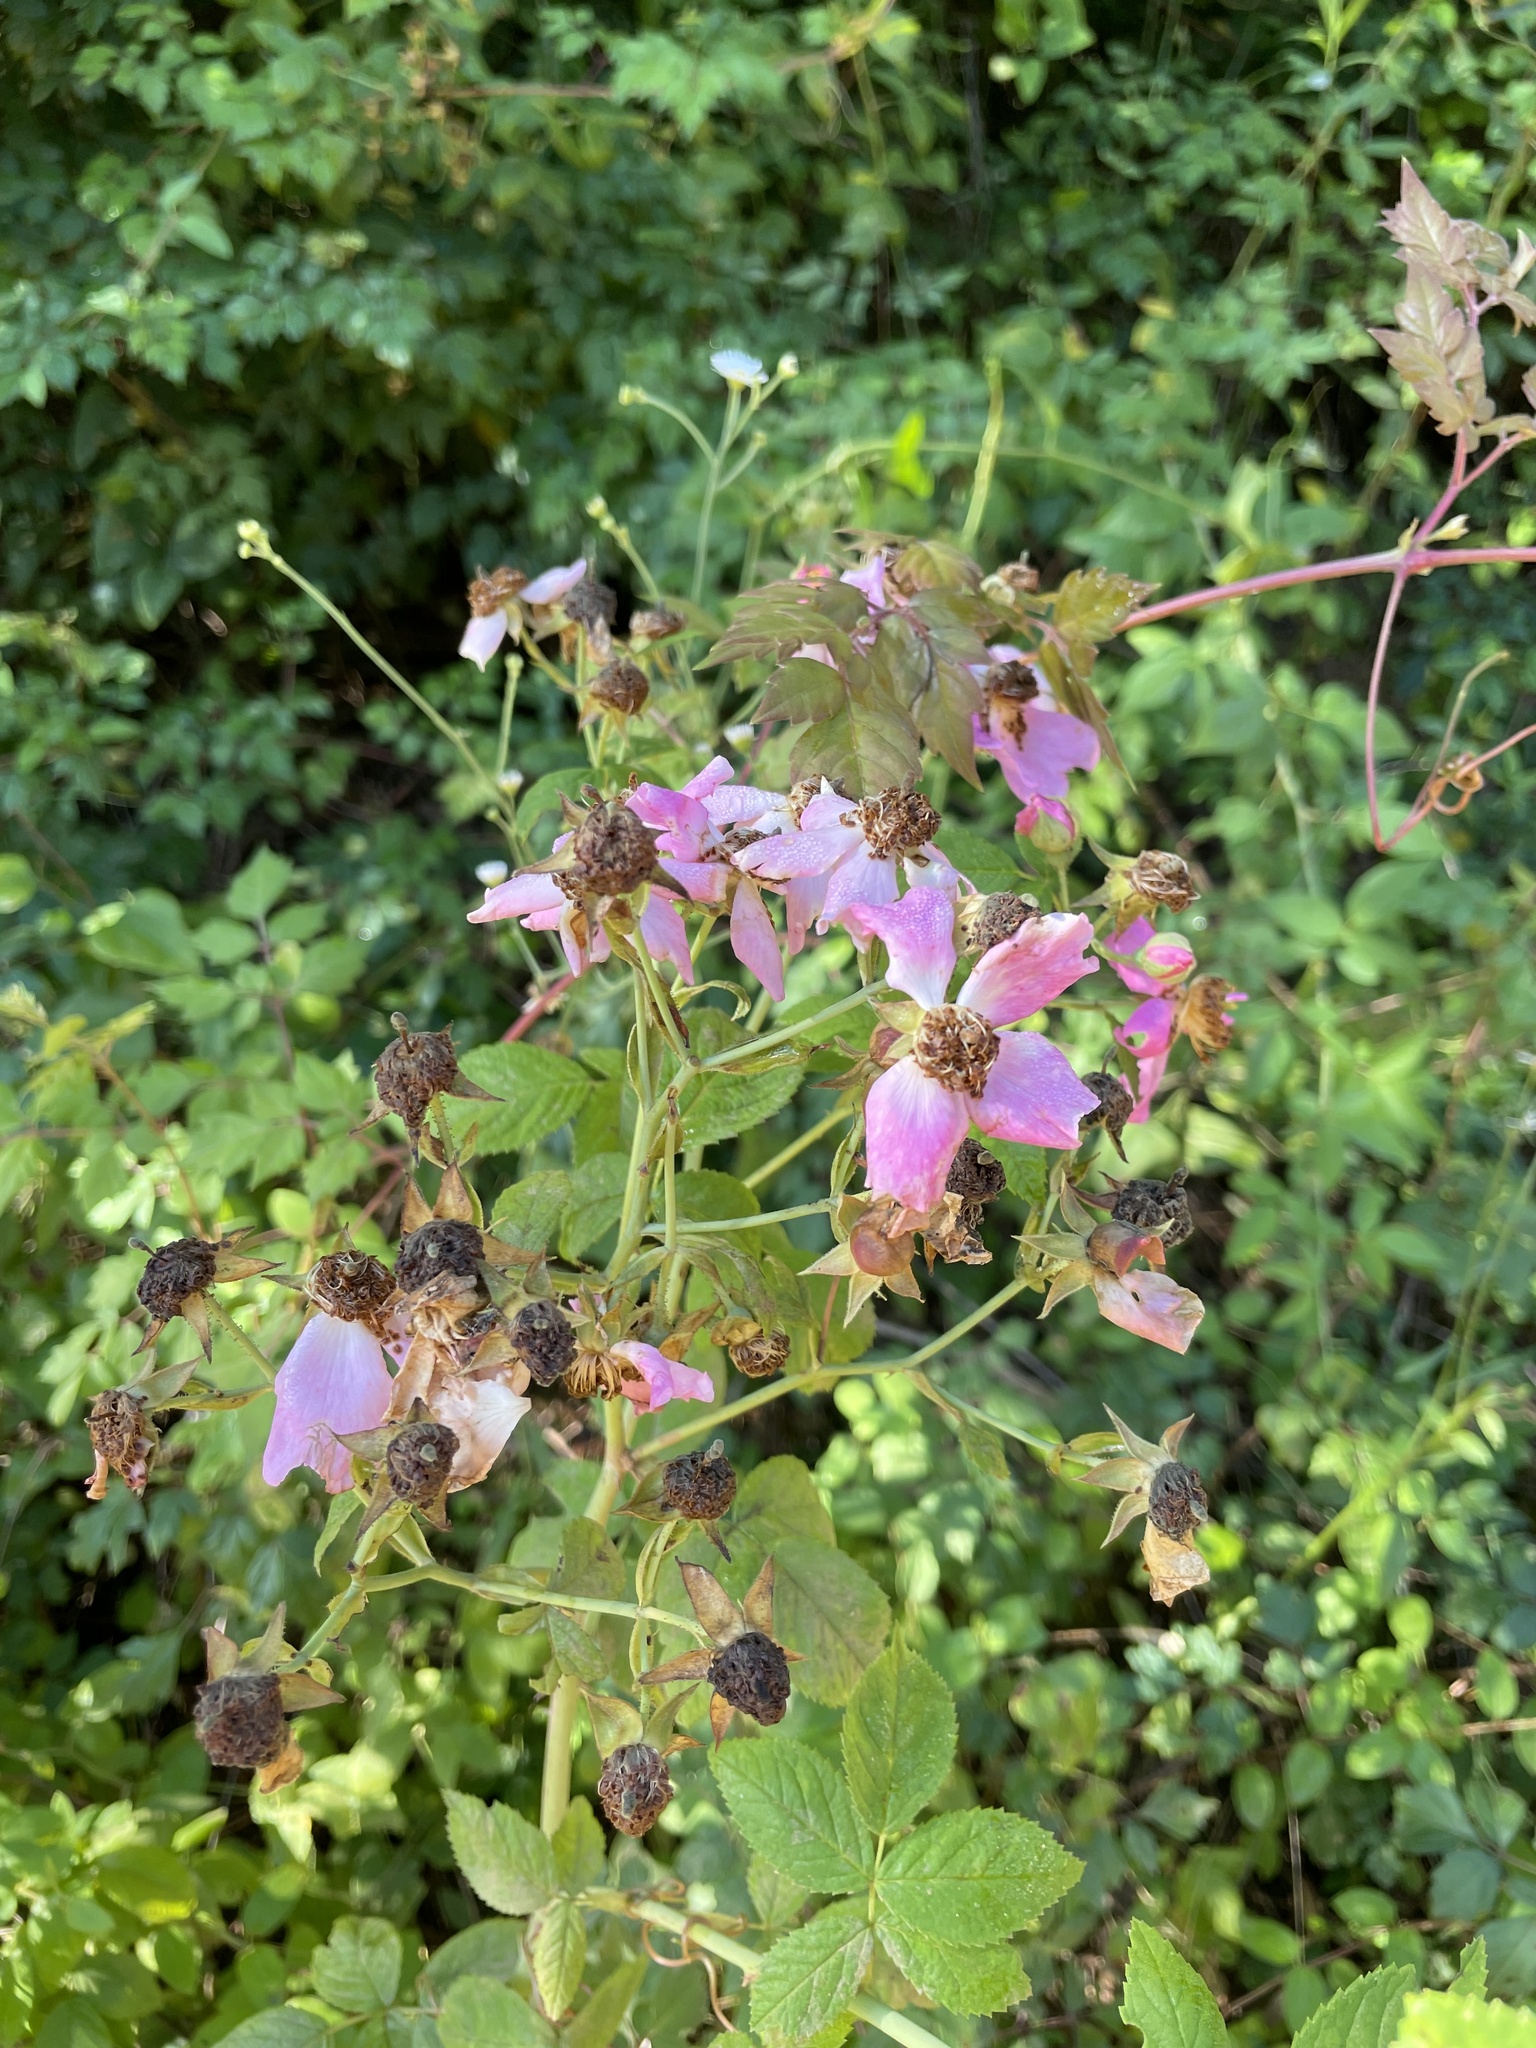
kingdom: Plantae
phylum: Tracheophyta
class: Magnoliopsida
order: Rosales
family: Rosaceae
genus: Rosa
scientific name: Rosa setigera
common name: Prairie rose
